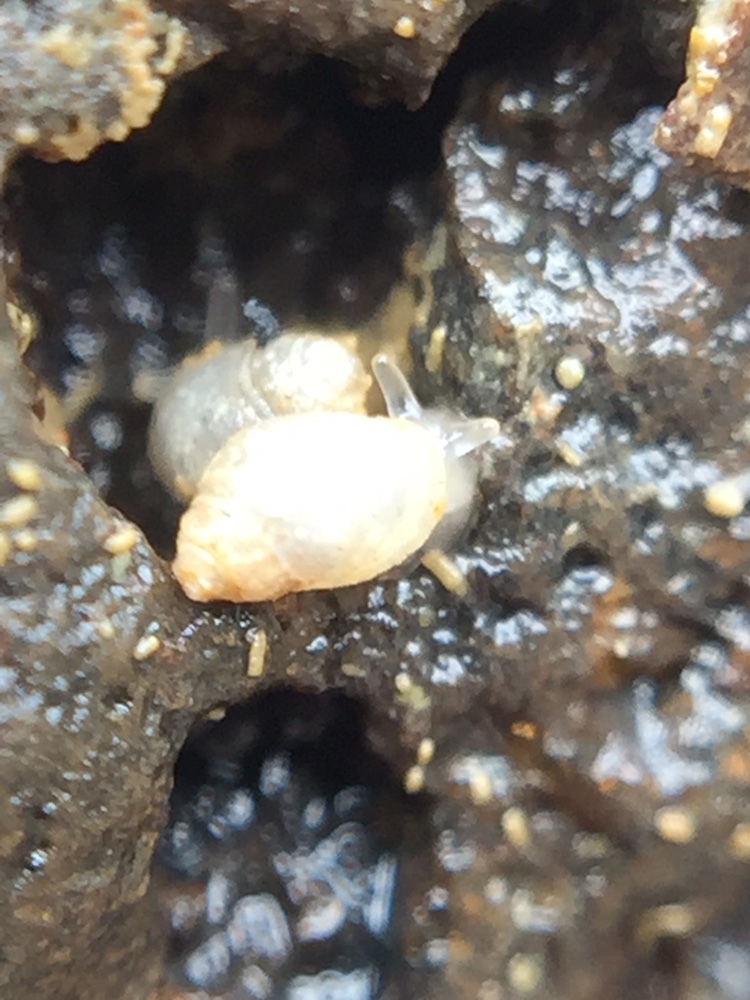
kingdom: Animalia
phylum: Mollusca
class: Gastropoda
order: Ellobiida
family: Ellobiidae
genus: Leuconopsis
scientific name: Leuconopsis obsoleta
